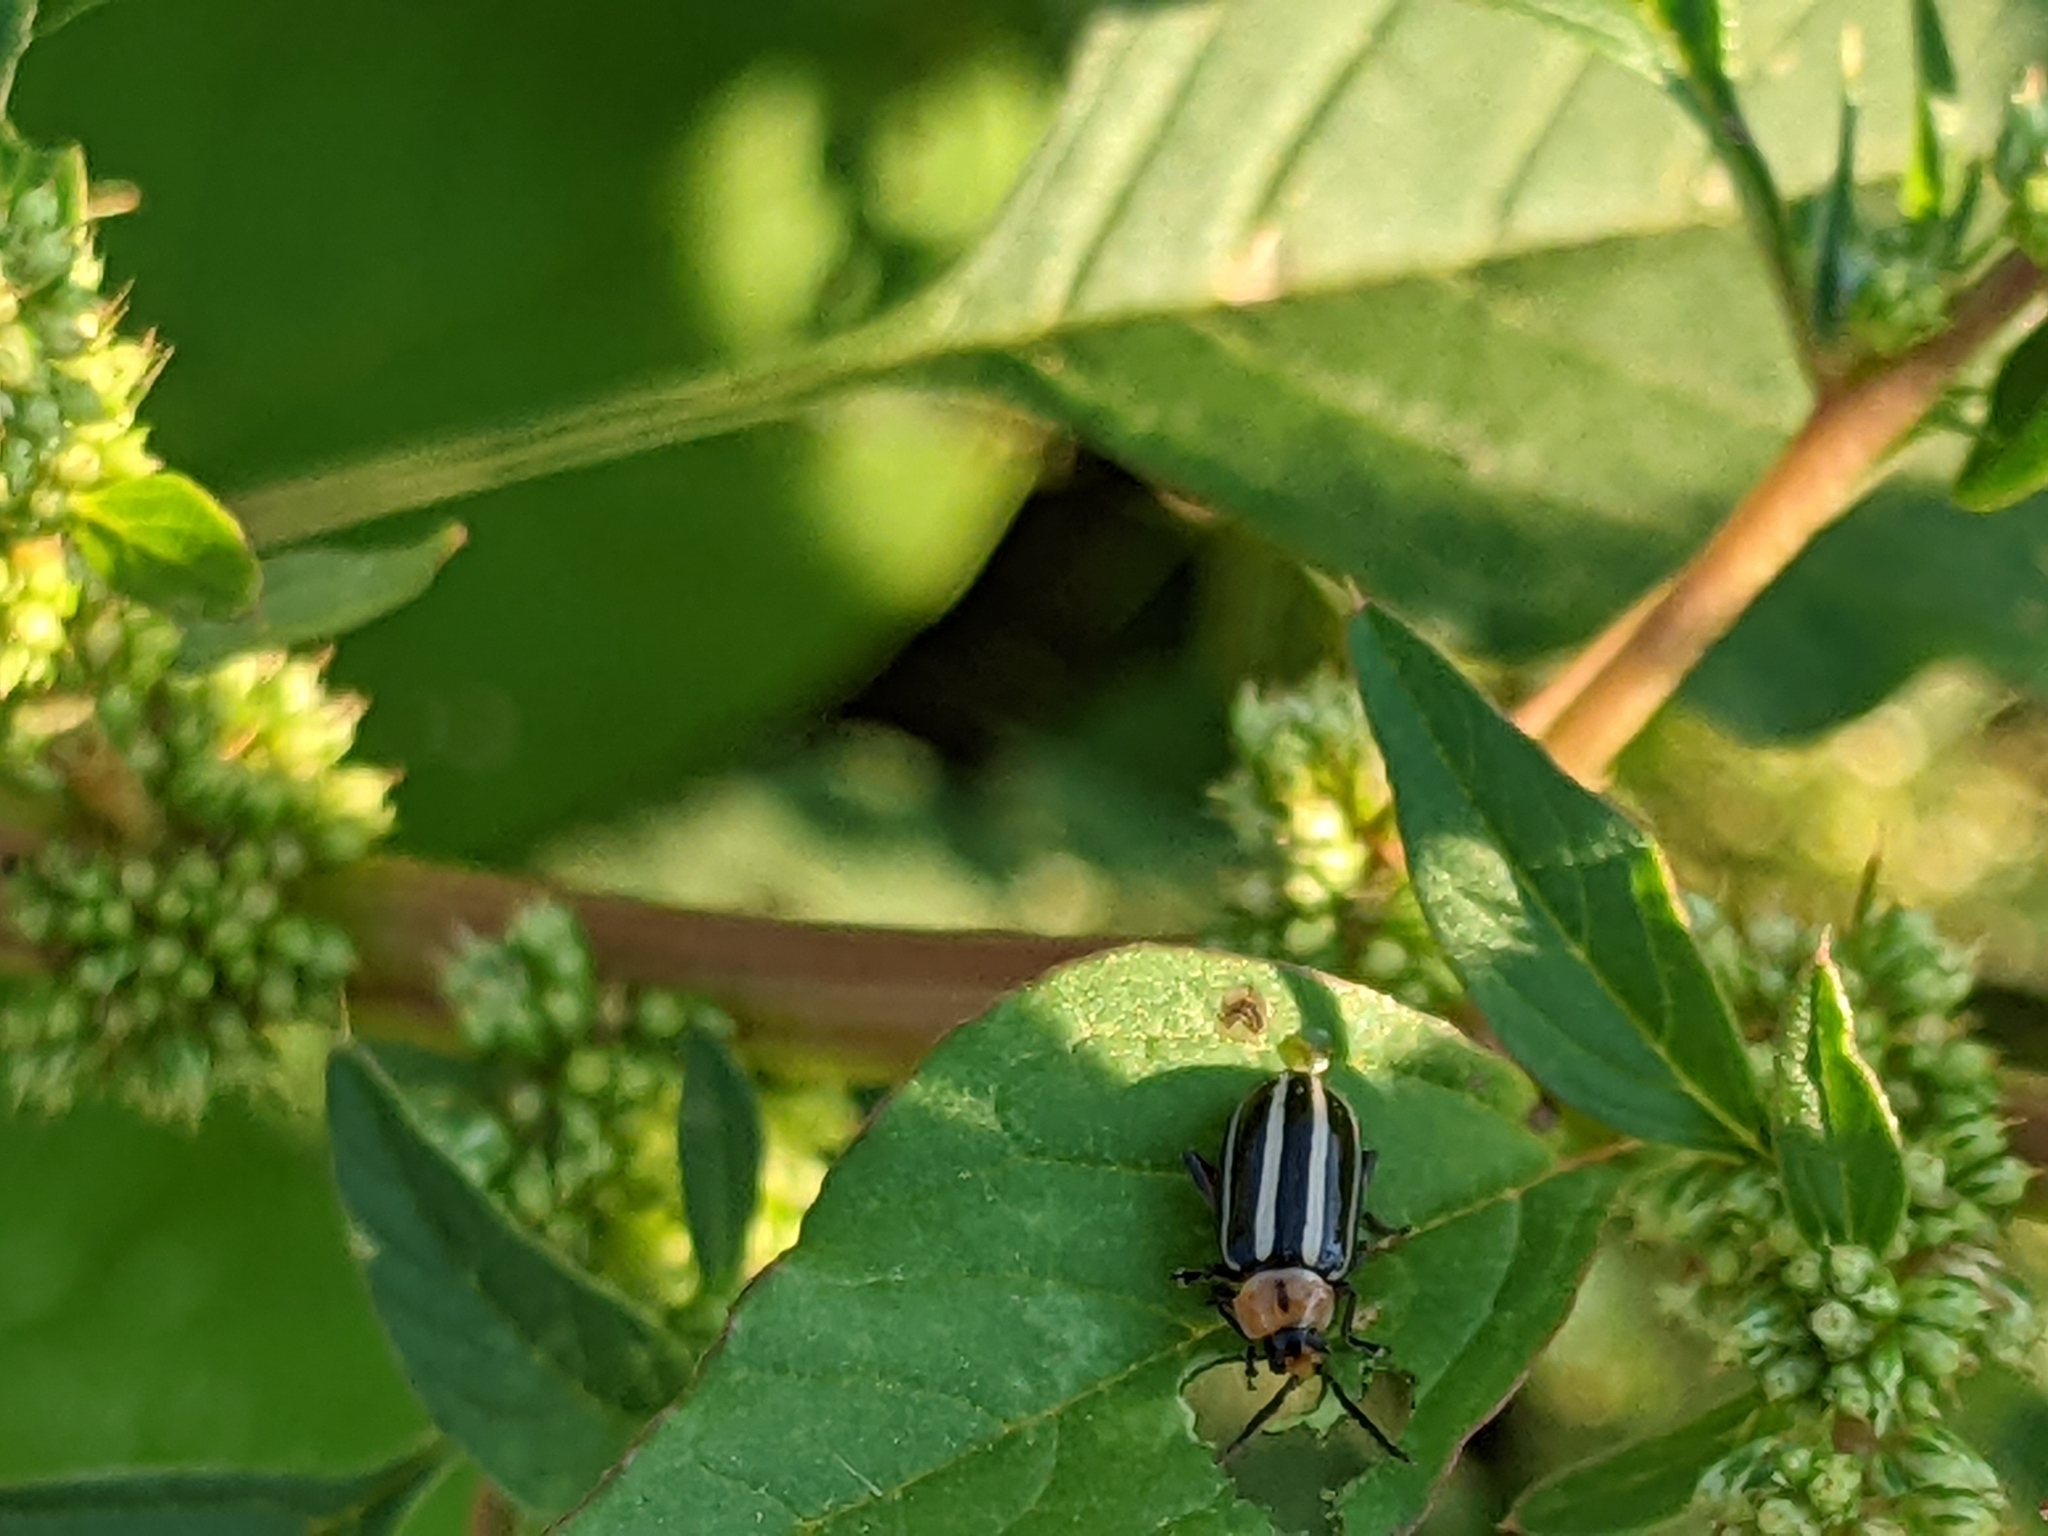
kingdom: Animalia
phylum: Arthropoda
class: Insecta
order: Coleoptera
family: Chrysomelidae
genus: Disonycha
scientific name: Disonycha glabrata
